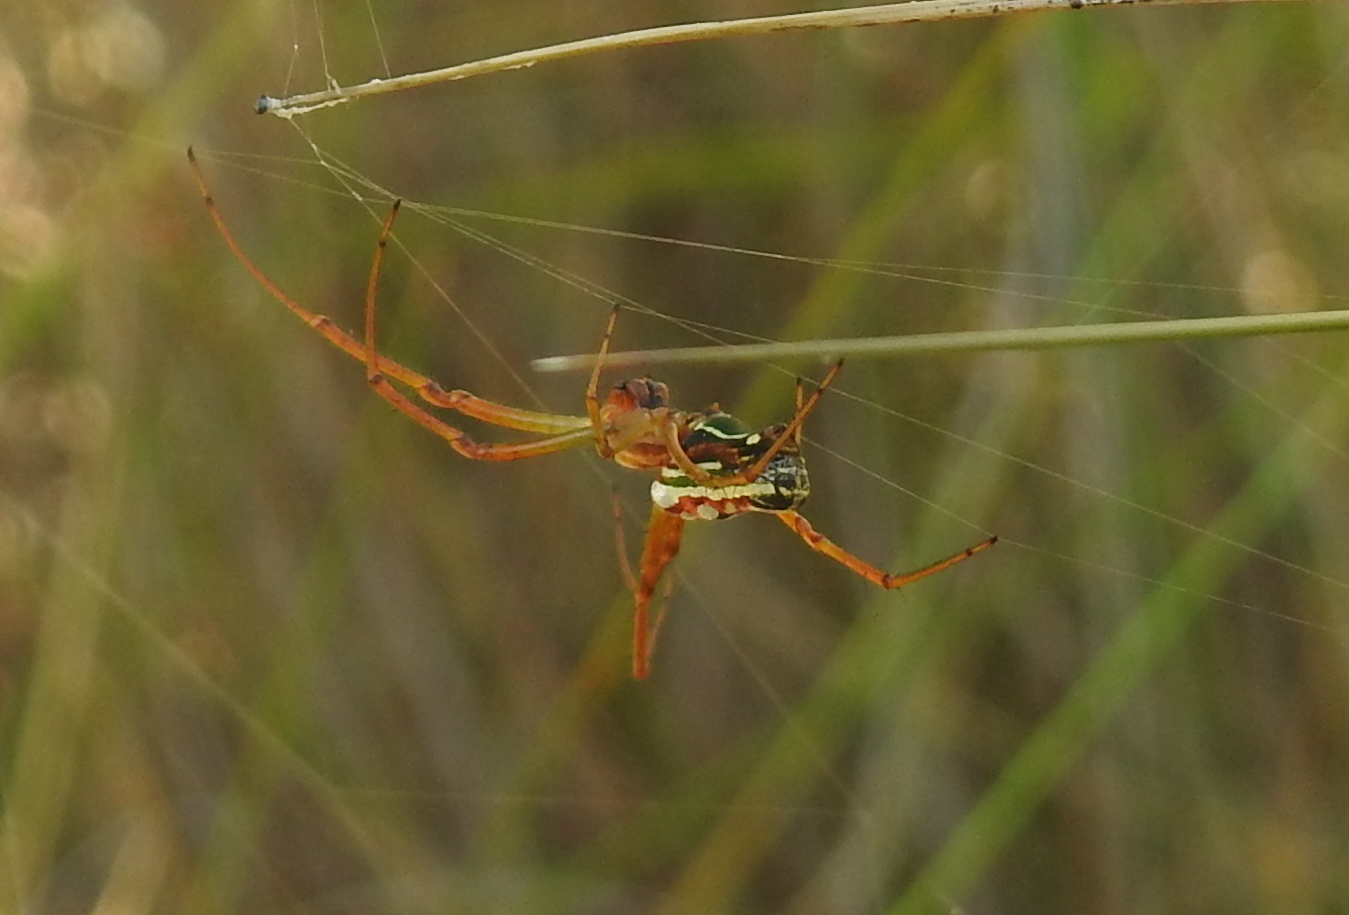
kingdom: Animalia
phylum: Arthropoda
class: Arachnida
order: Araneae
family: Tetragnathidae
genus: Leucauge
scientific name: Leucauge festiva
